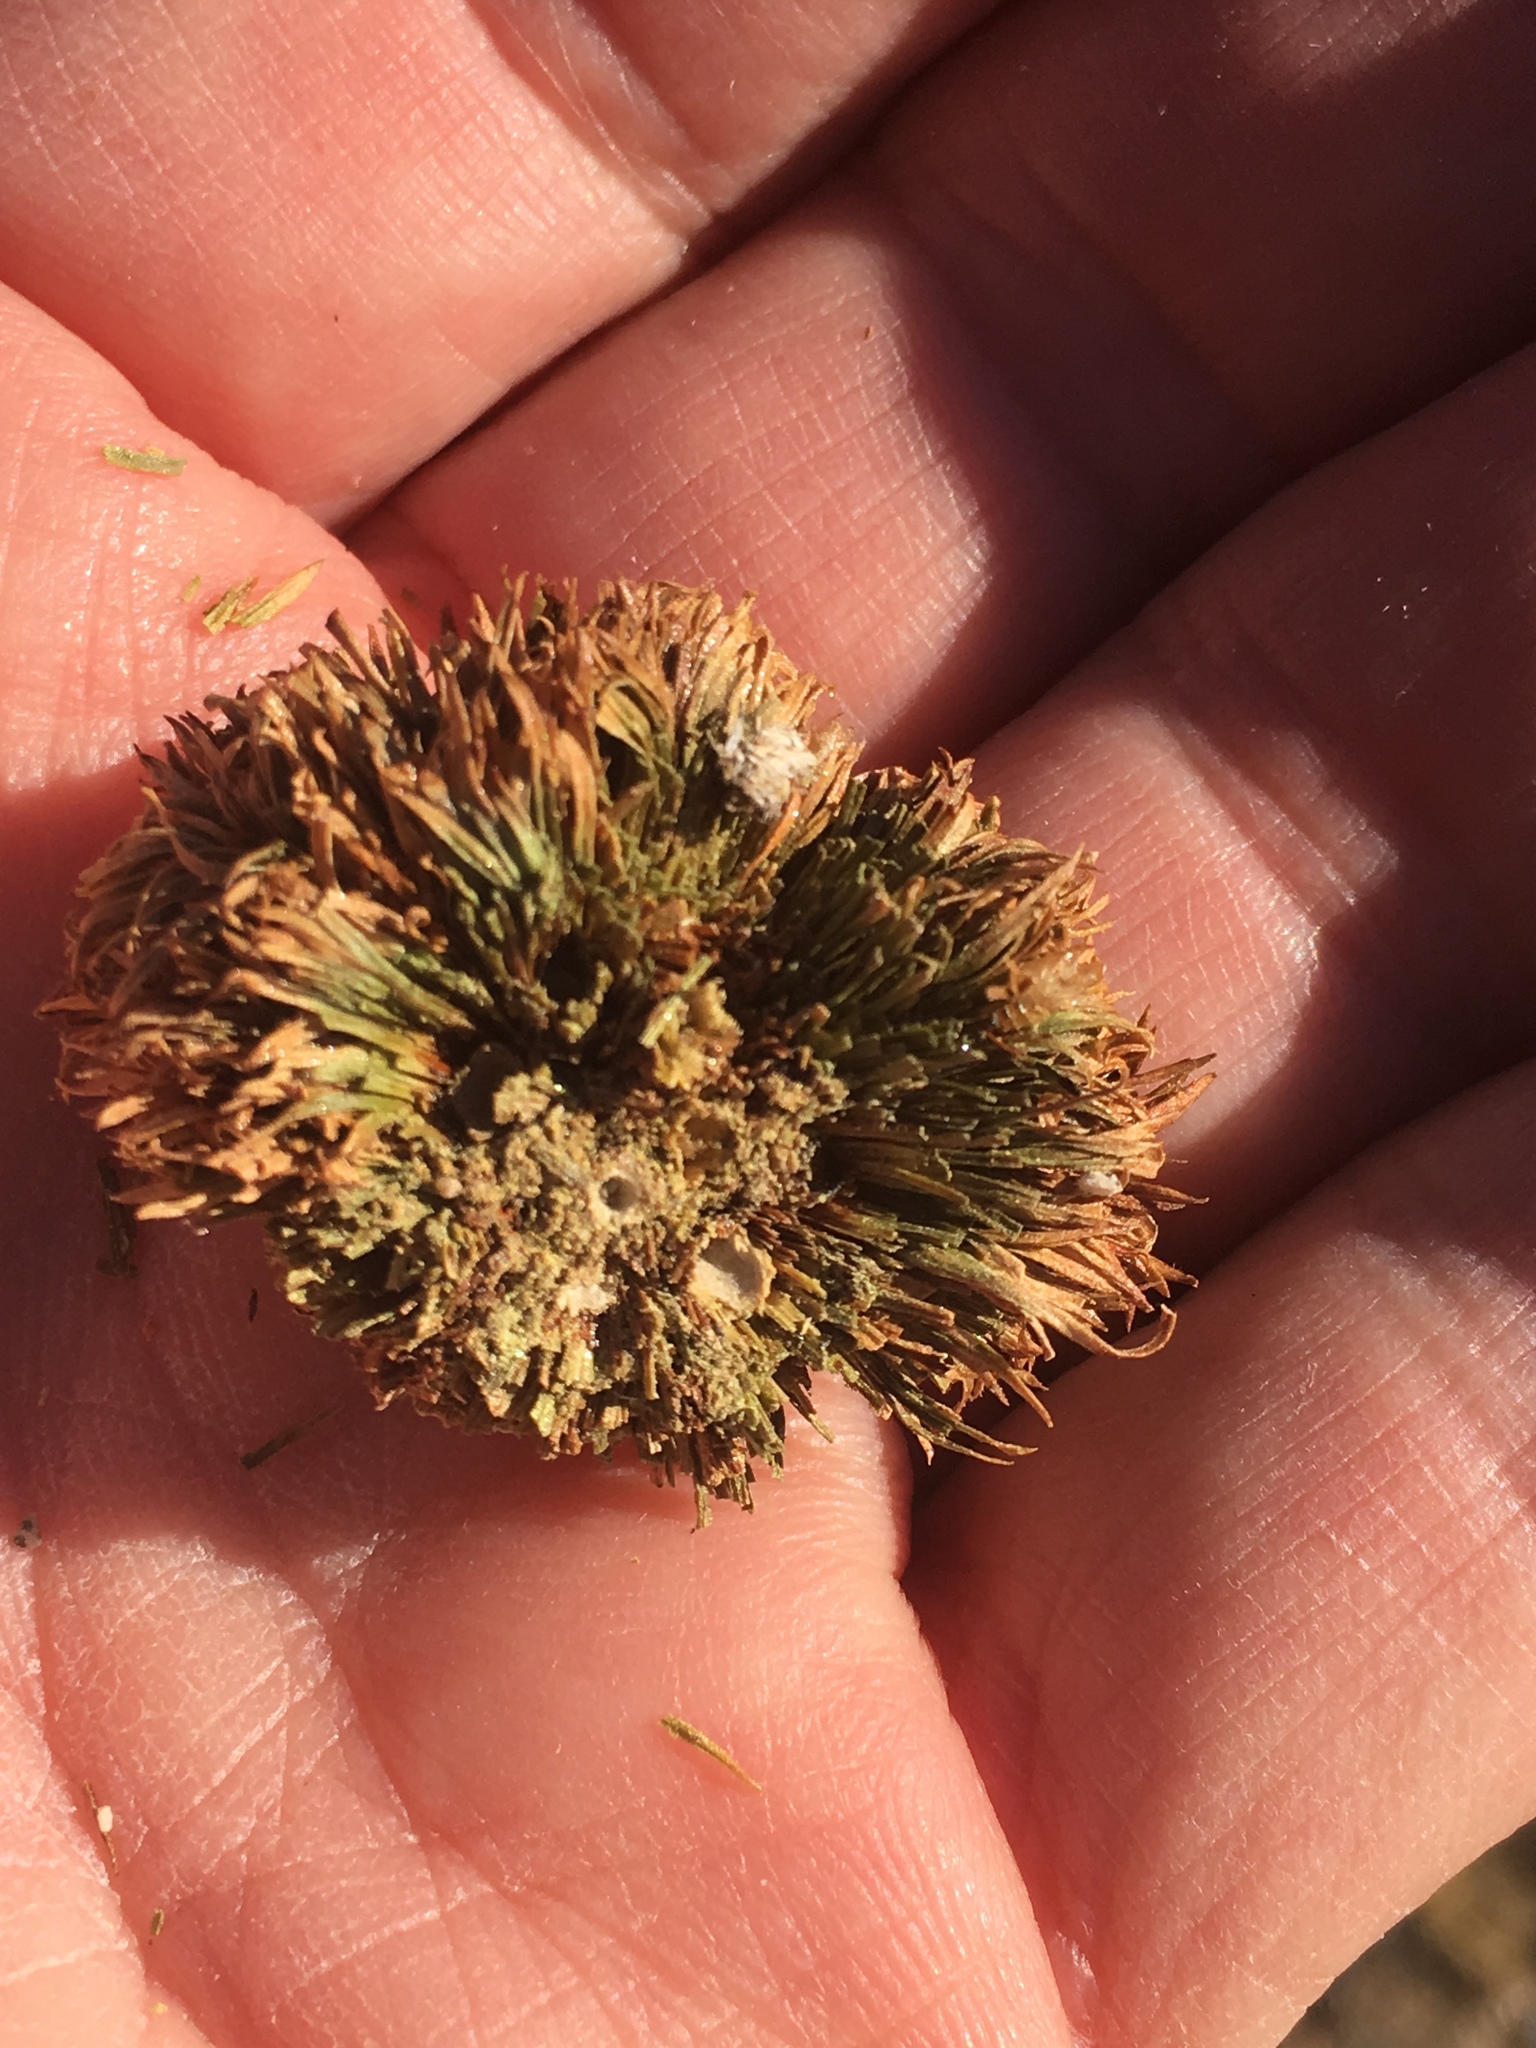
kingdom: Animalia
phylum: Arthropoda
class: Insecta
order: Diptera
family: Cecidomyiidae
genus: Asphondylia
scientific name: Asphondylia auripila
